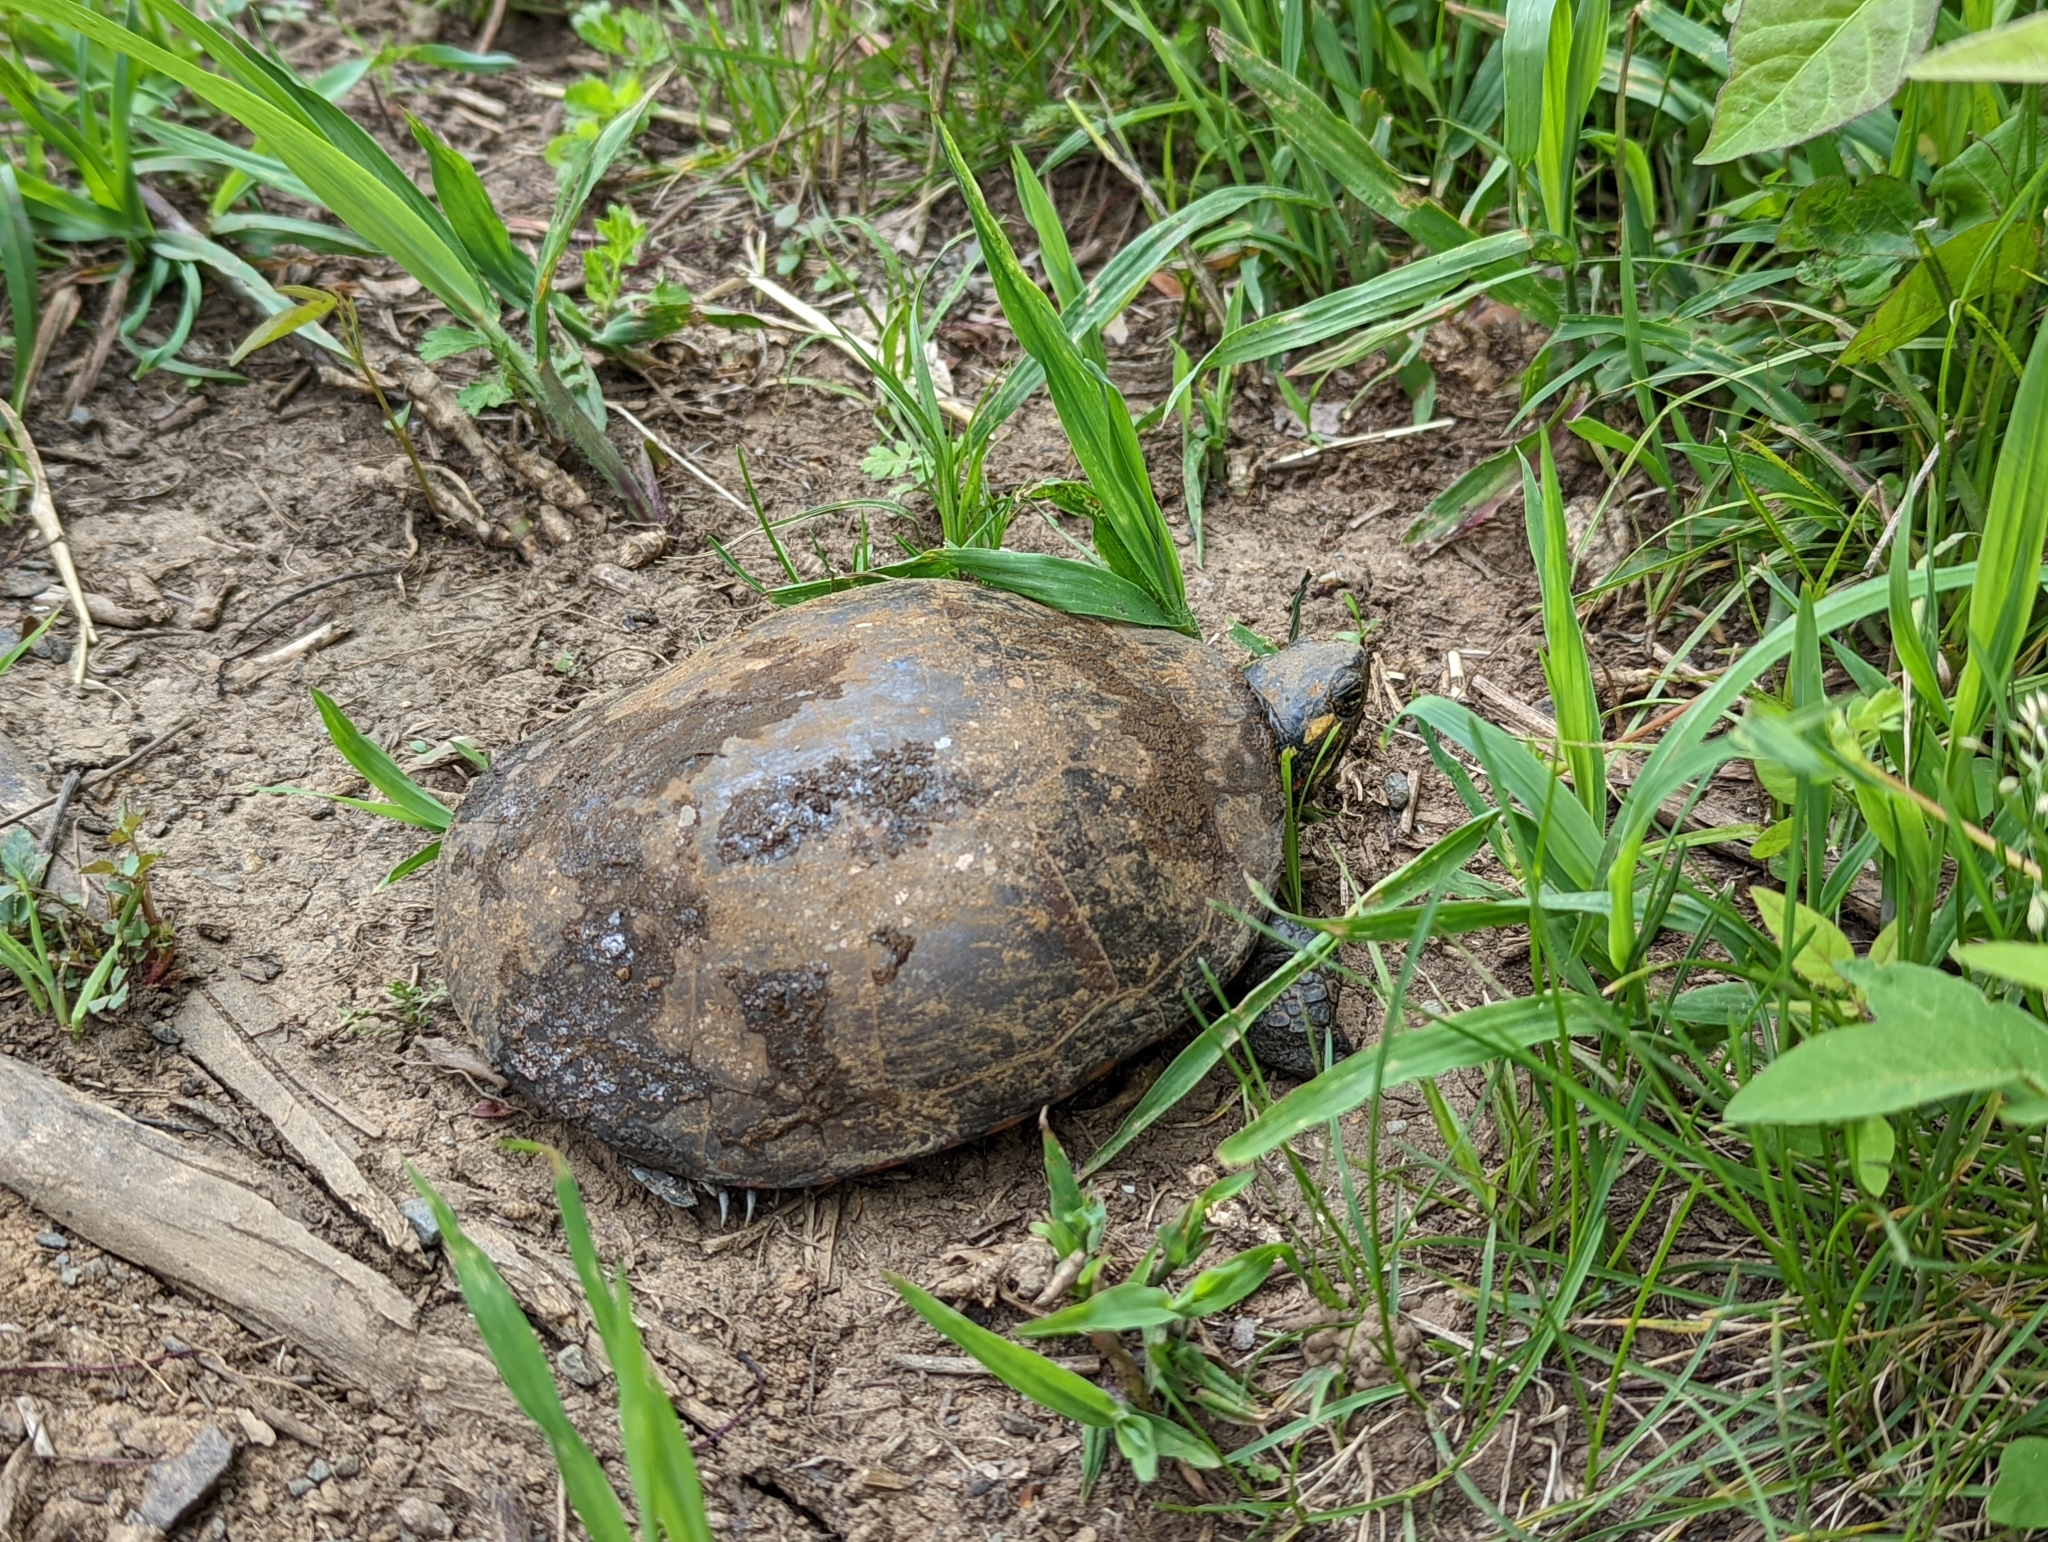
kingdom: Animalia
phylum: Chordata
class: Testudines
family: Emydidae
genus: Chrysemys
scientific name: Chrysemys picta
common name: Painted turtle
